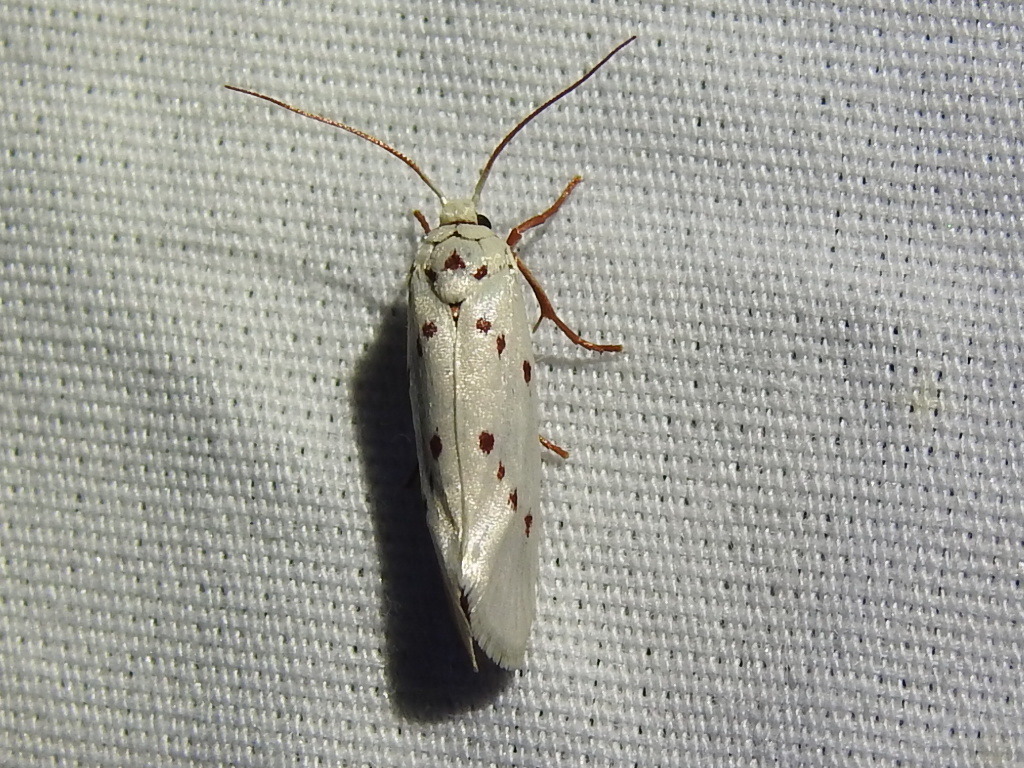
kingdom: Animalia
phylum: Arthropoda
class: Insecta
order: Lepidoptera
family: Lacturidae
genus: Lactura
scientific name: Lactura
